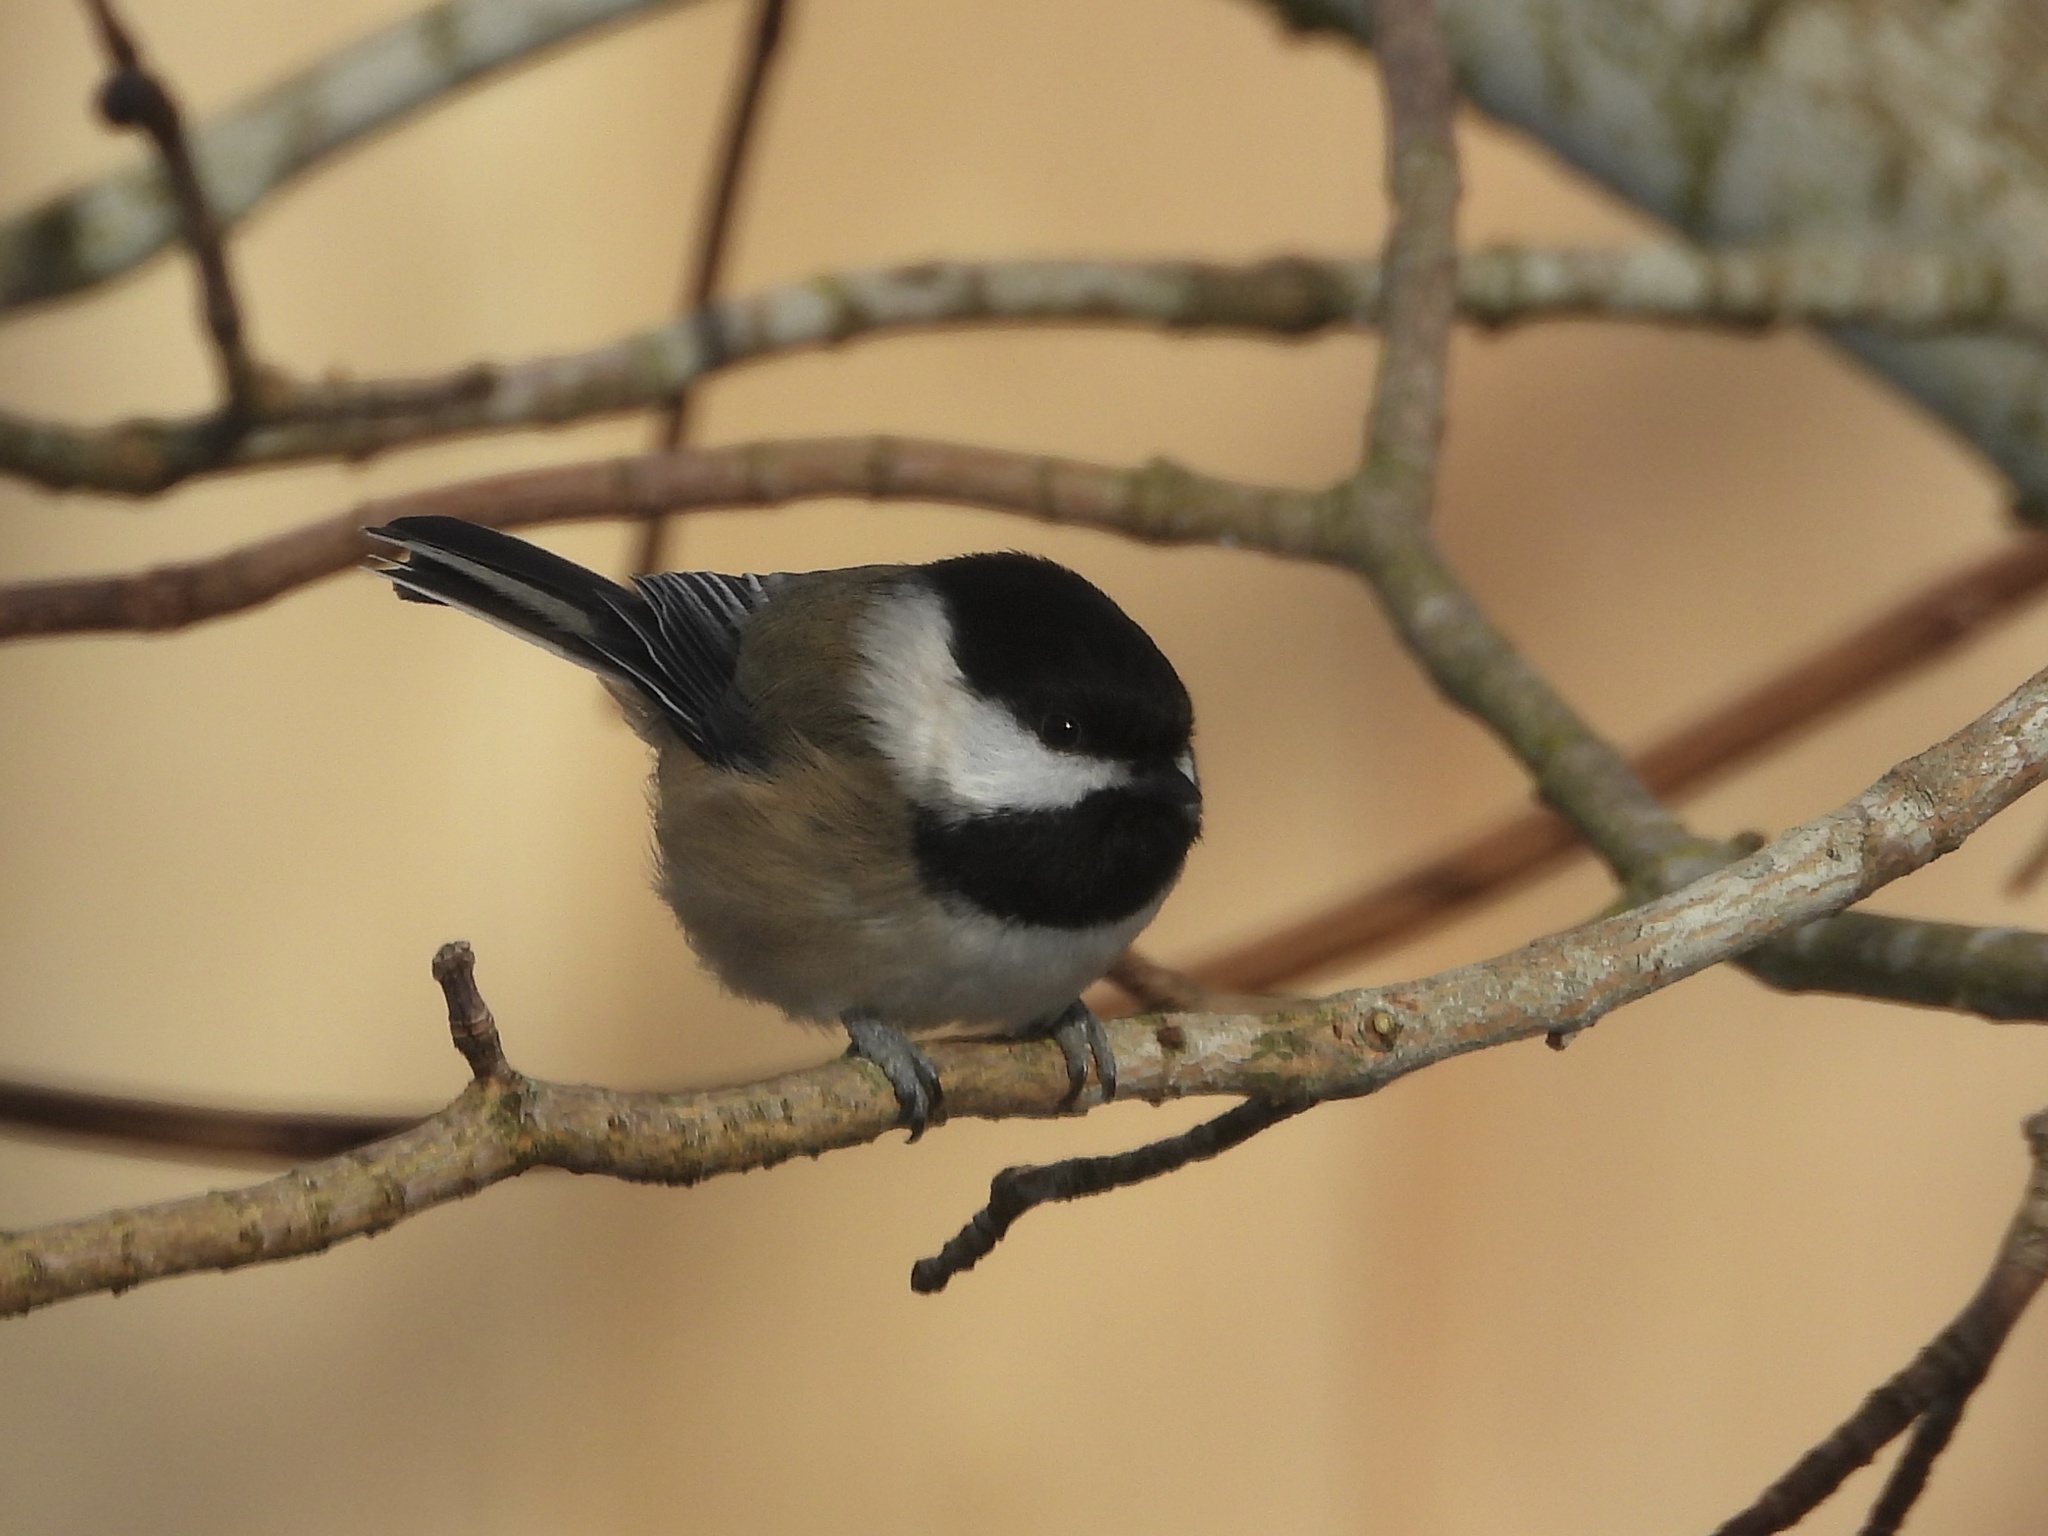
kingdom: Animalia
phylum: Chordata
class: Aves
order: Passeriformes
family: Paridae
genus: Poecile
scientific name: Poecile atricapillus
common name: Black-capped chickadee
